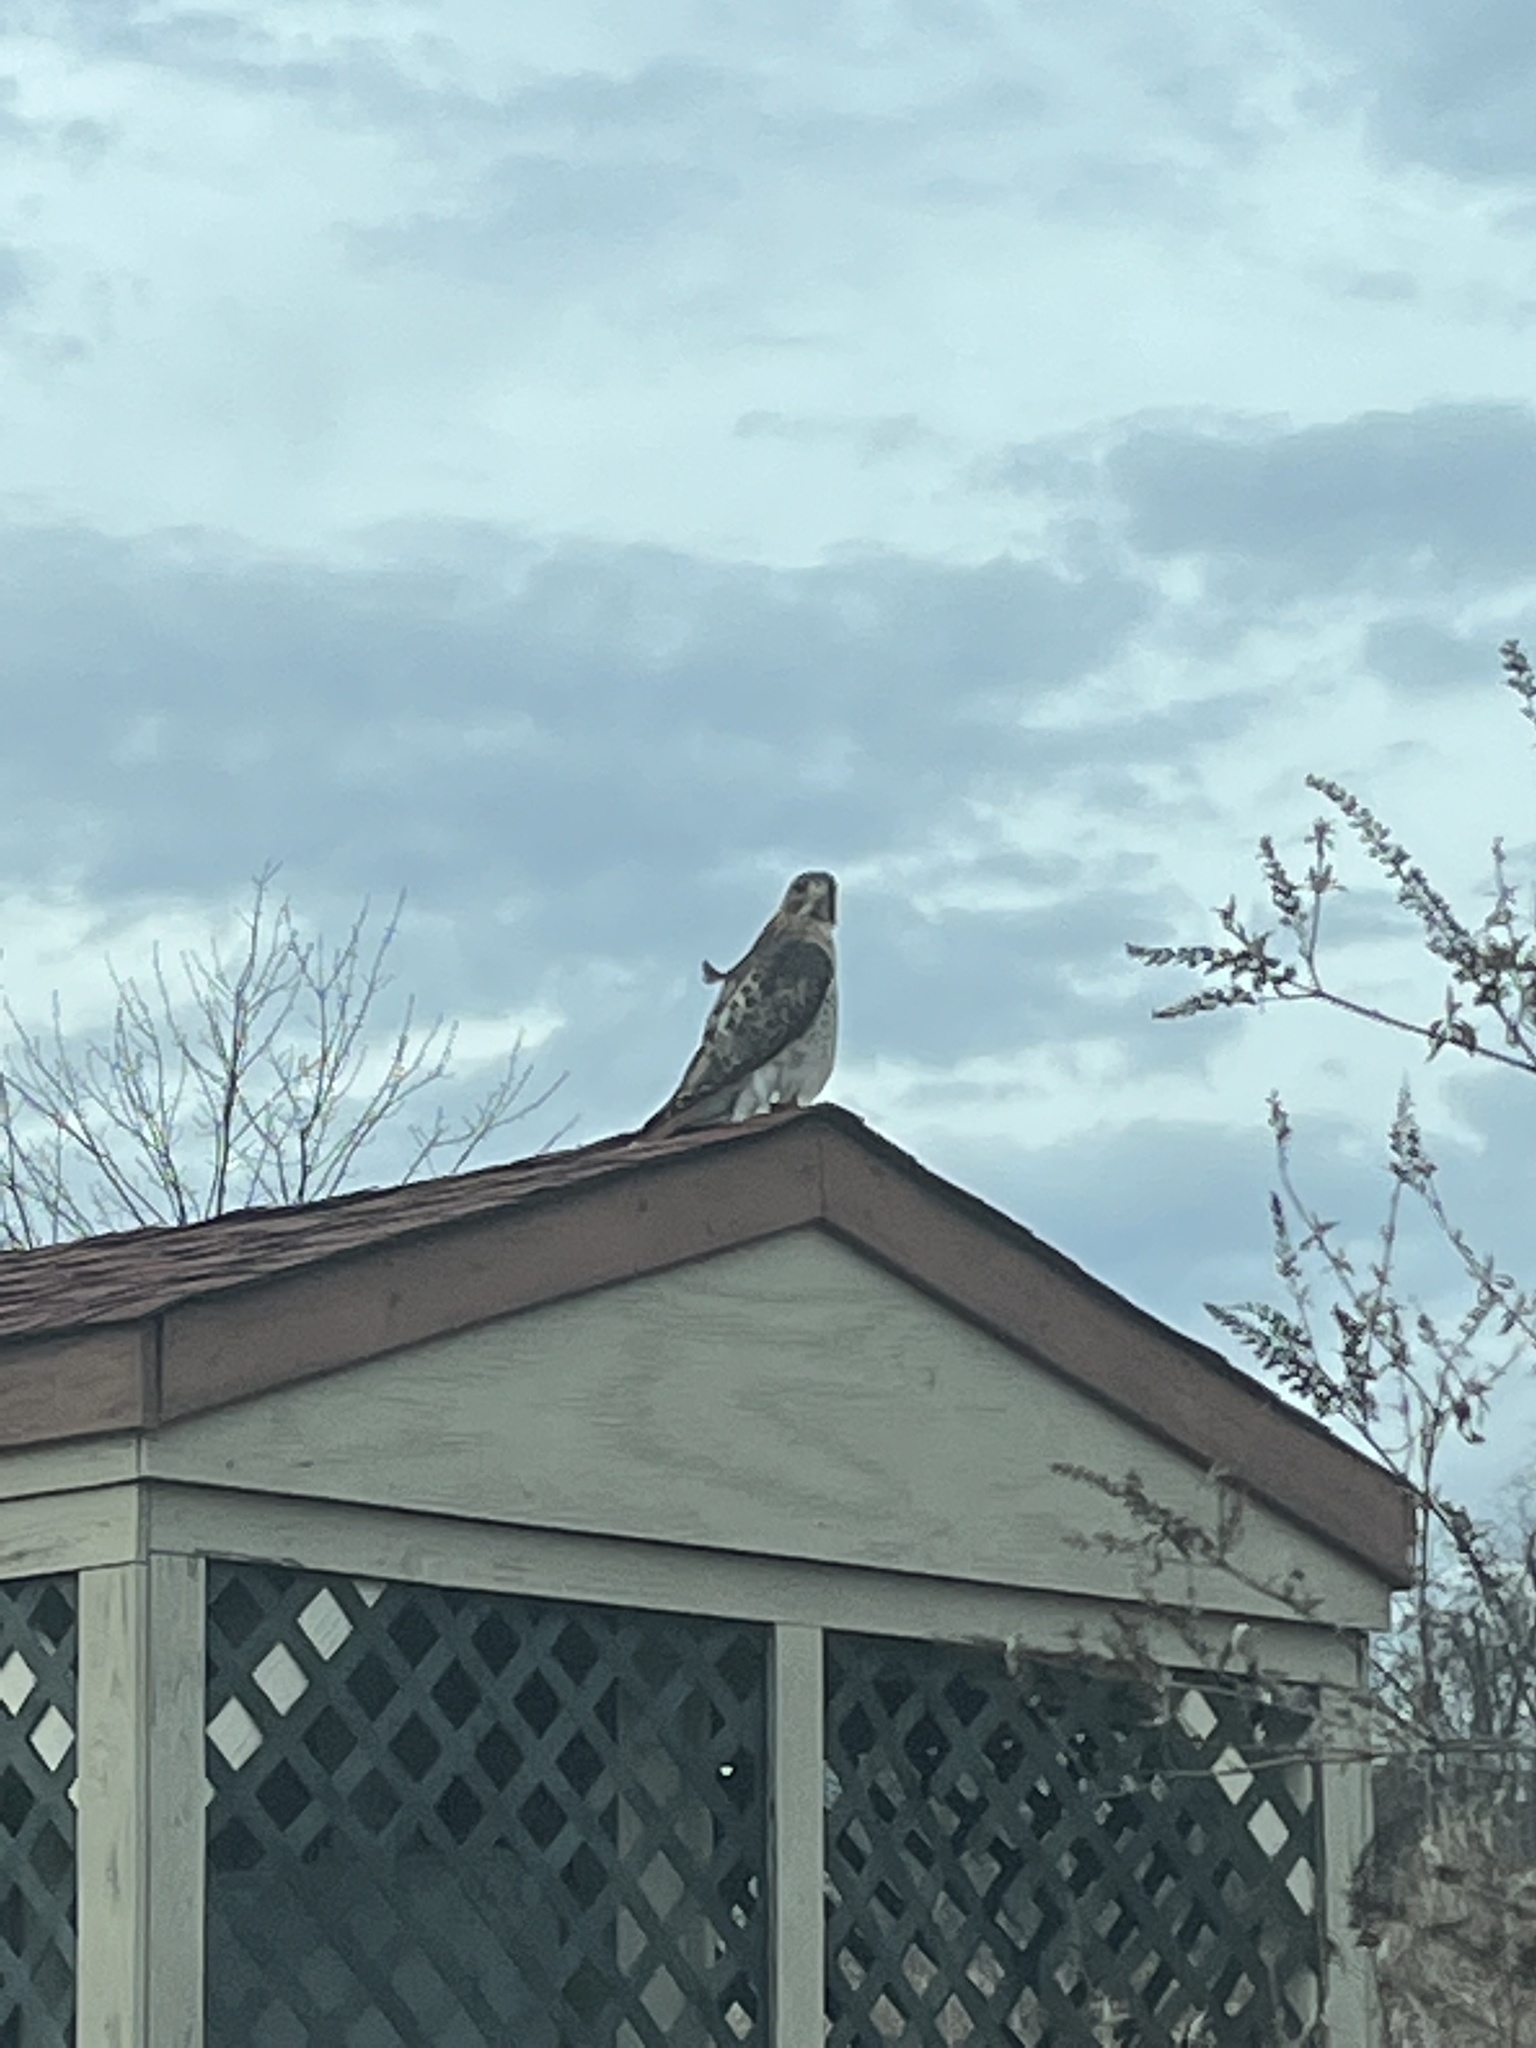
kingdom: Animalia
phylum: Chordata
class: Aves
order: Accipitriformes
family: Accipitridae
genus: Buteo
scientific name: Buteo jamaicensis
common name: Red-tailed hawk
